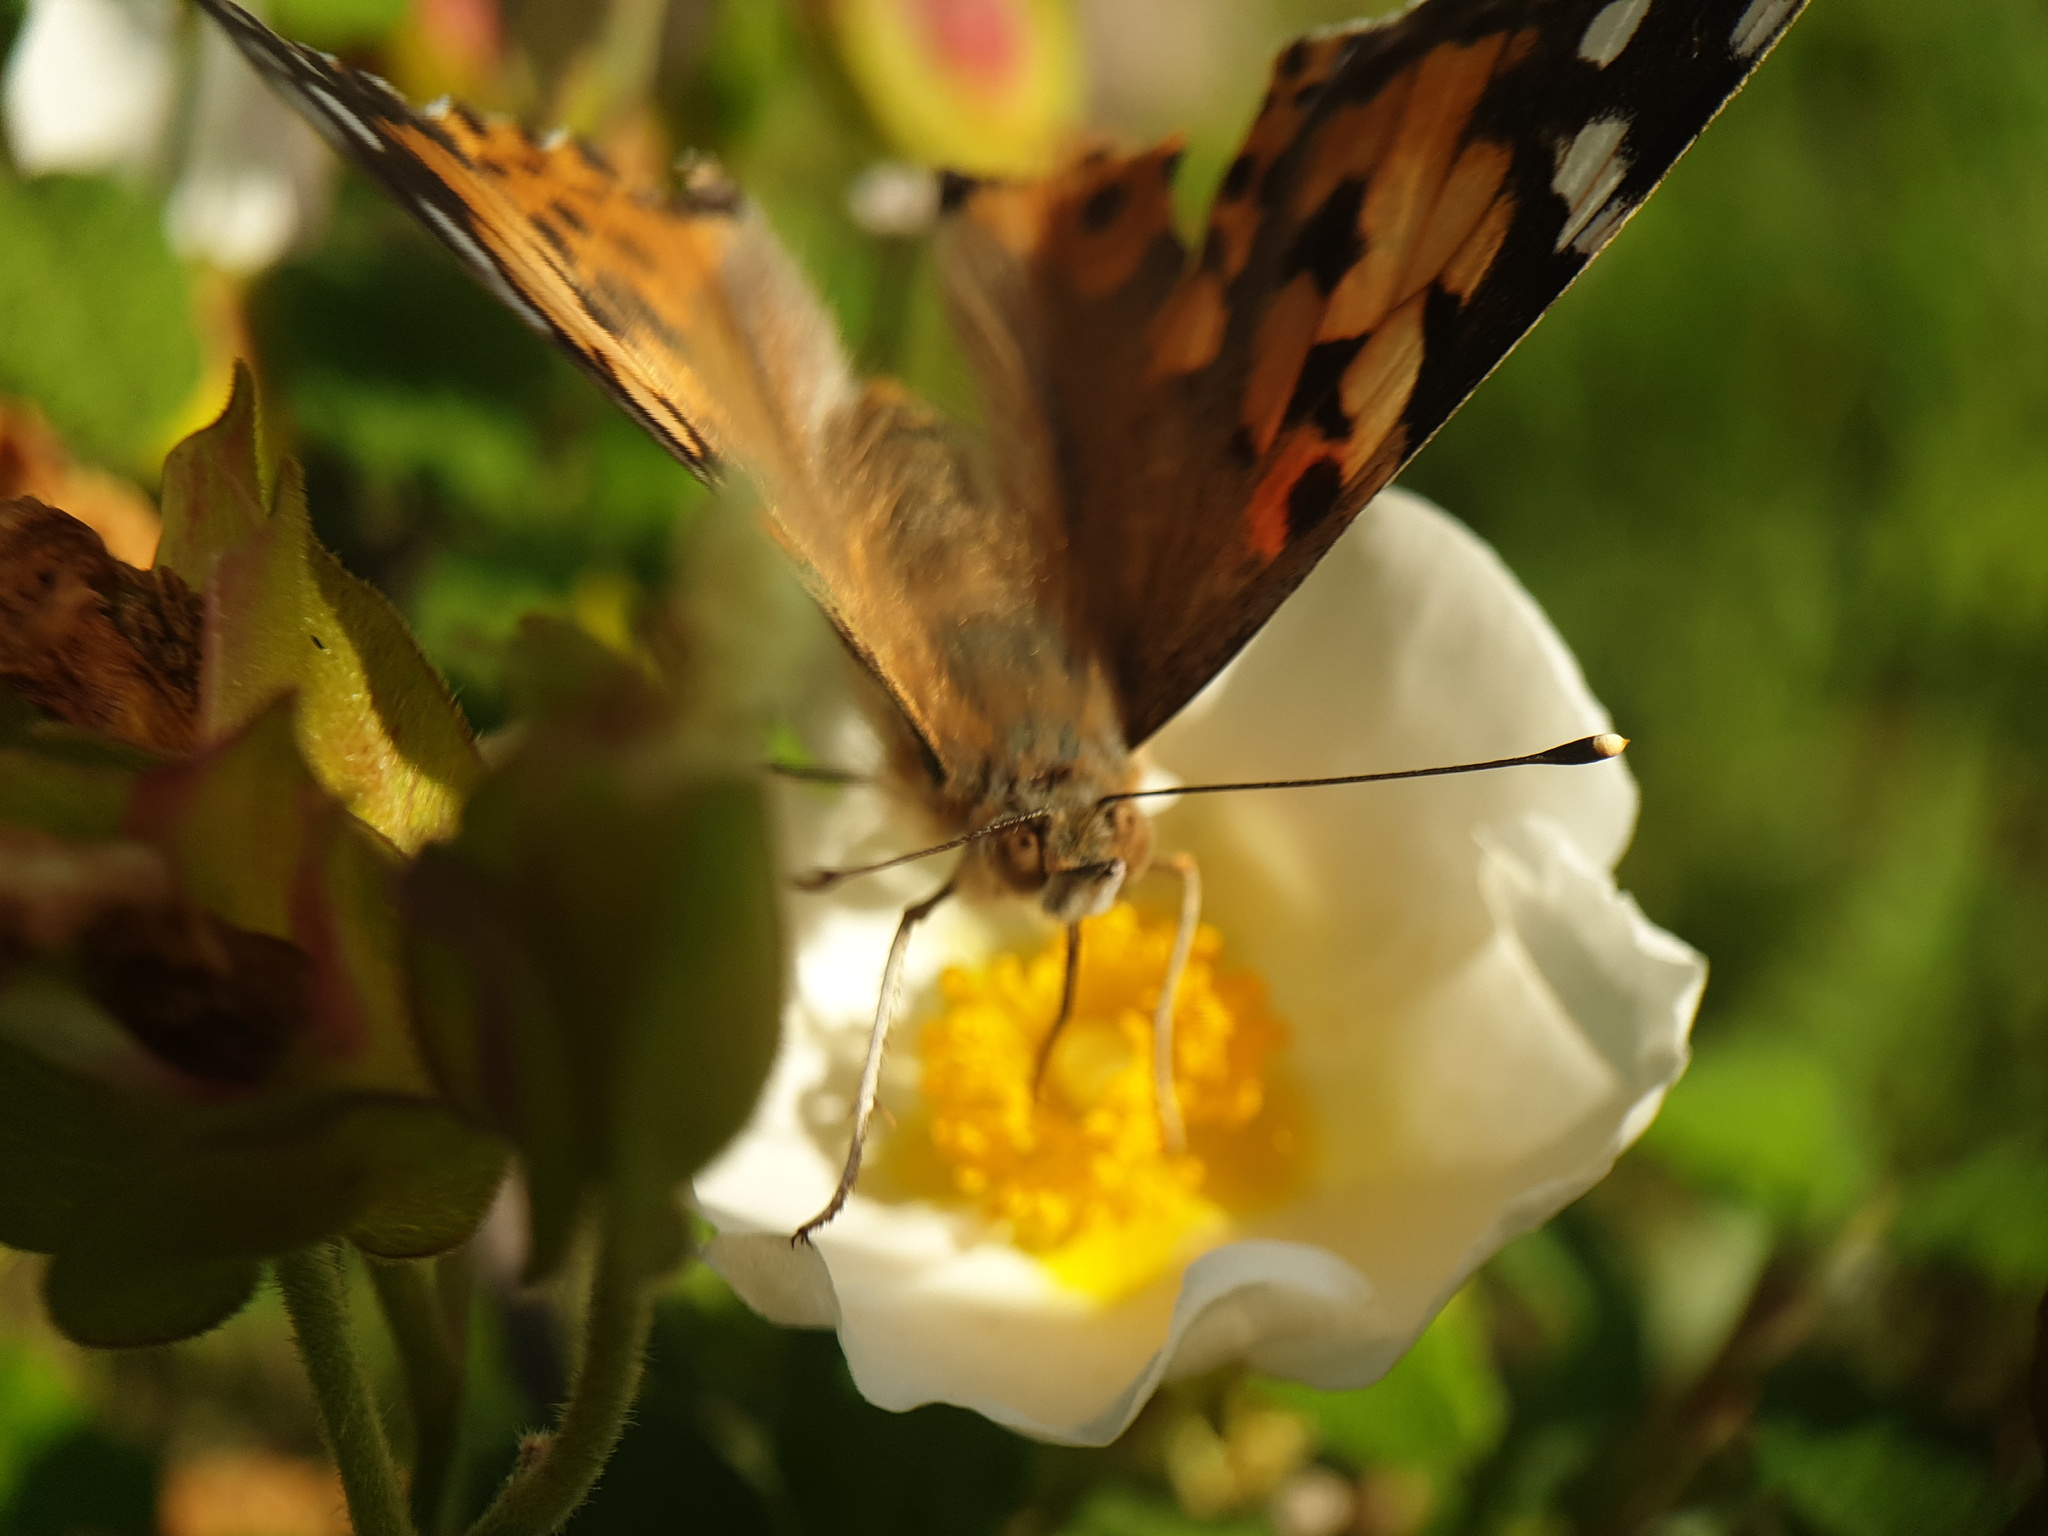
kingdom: Animalia
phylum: Arthropoda
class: Insecta
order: Lepidoptera
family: Nymphalidae
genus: Vanessa
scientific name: Vanessa cardui
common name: Painted lady
